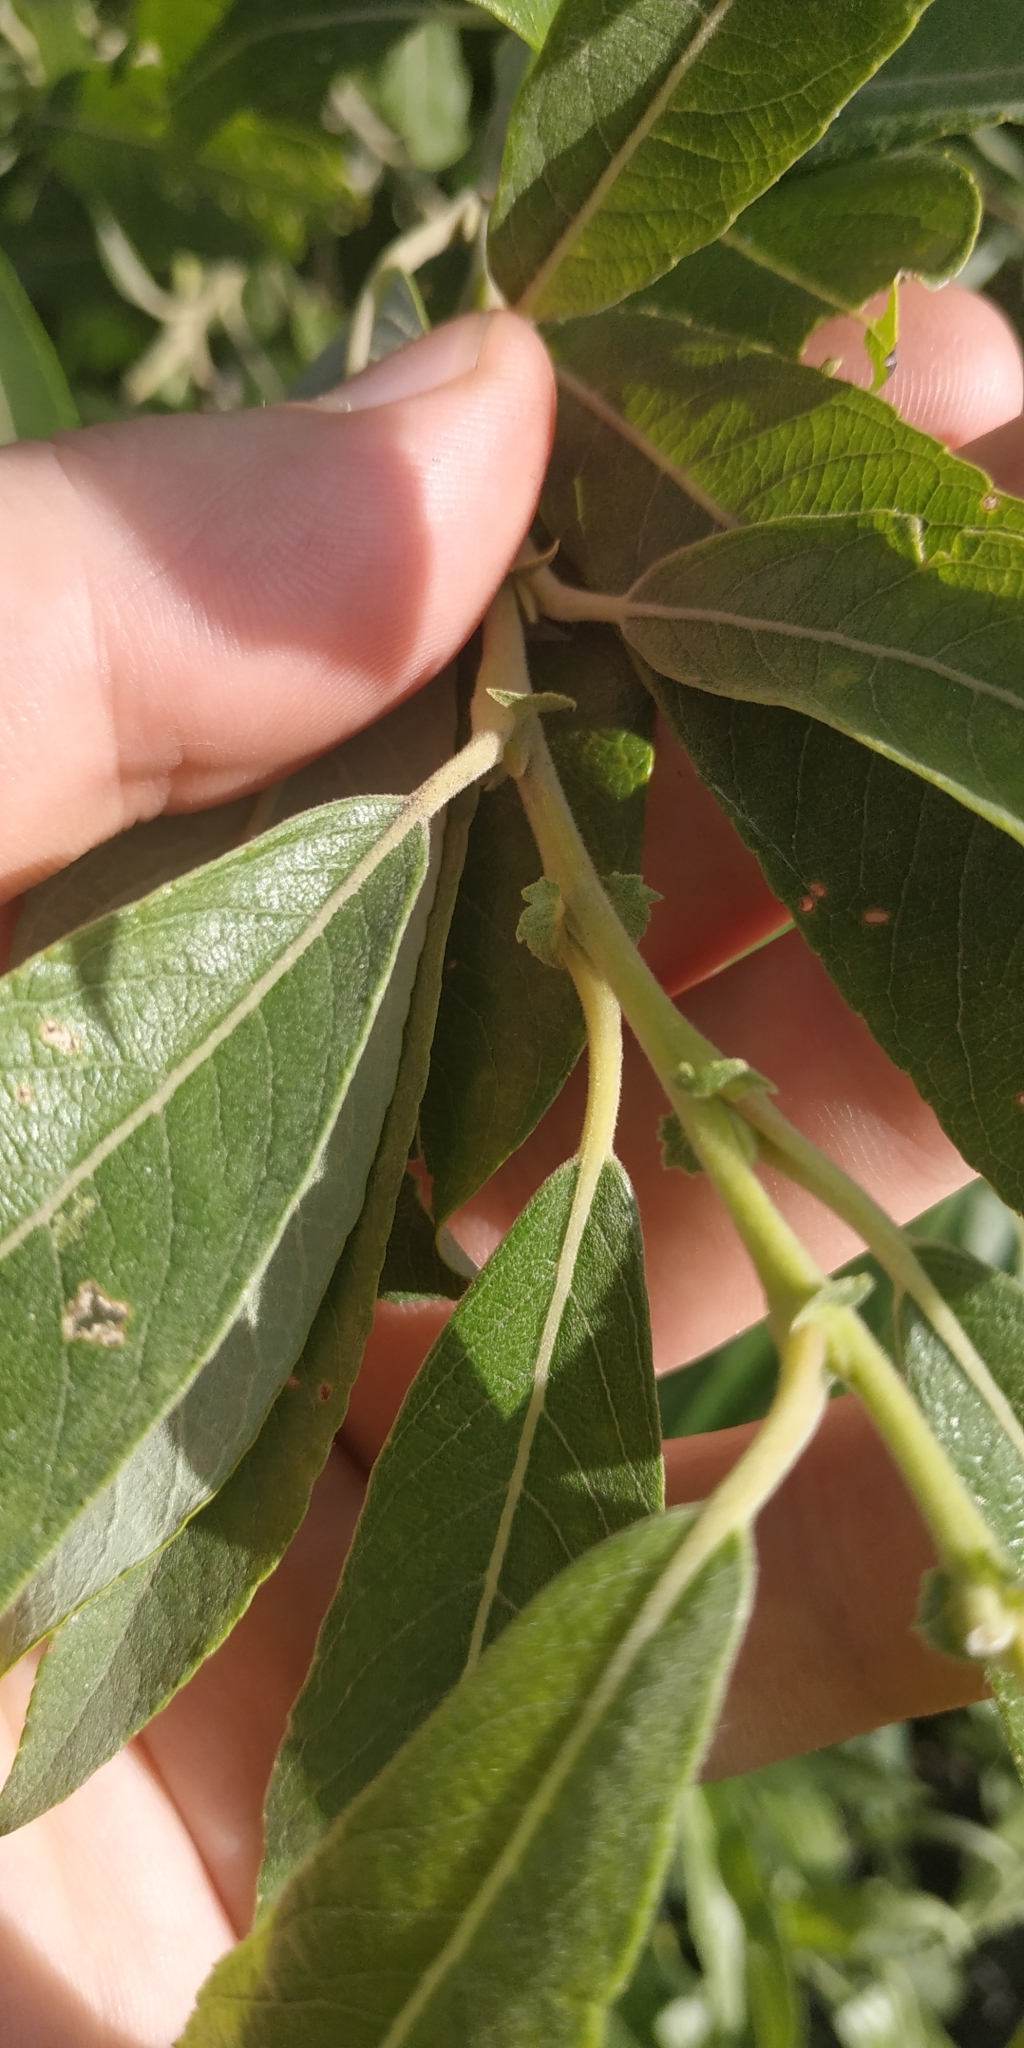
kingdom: Plantae
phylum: Tracheophyta
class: Magnoliopsida
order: Malpighiales
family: Salicaceae
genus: Salix
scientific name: Salix cinerea
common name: Common sallow
